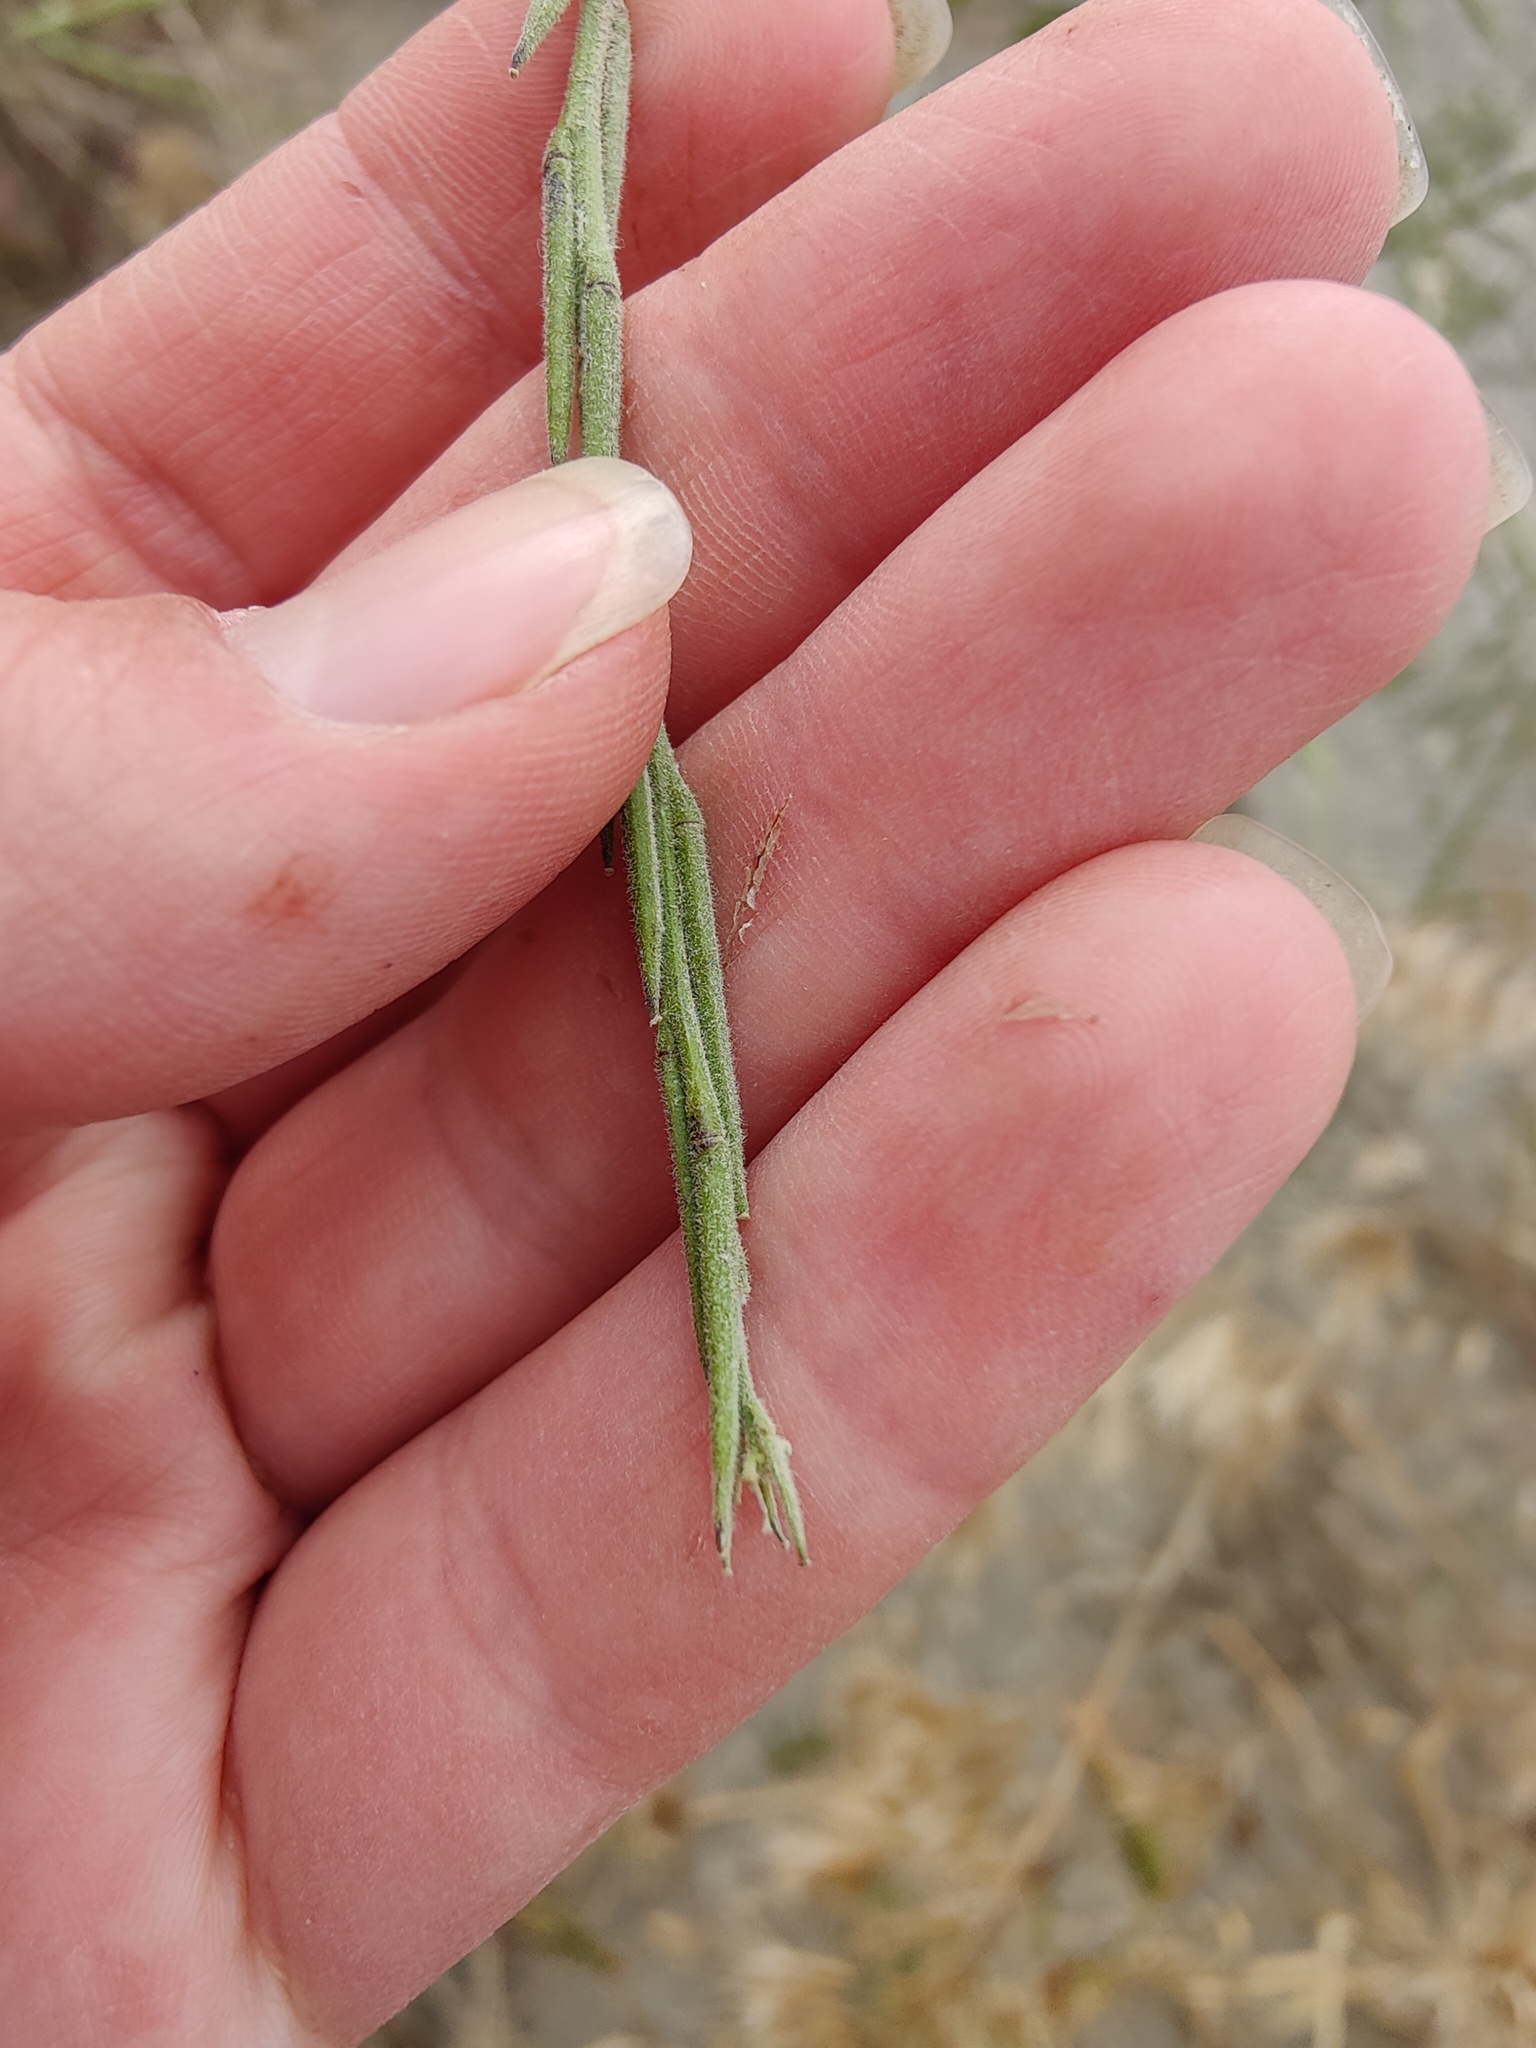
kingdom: Plantae
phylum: Tracheophyta
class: Magnoliopsida
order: Brassicales
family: Brassicaceae
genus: Sisymbrium
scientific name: Sisymbrium officinale
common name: Hedge mustard
